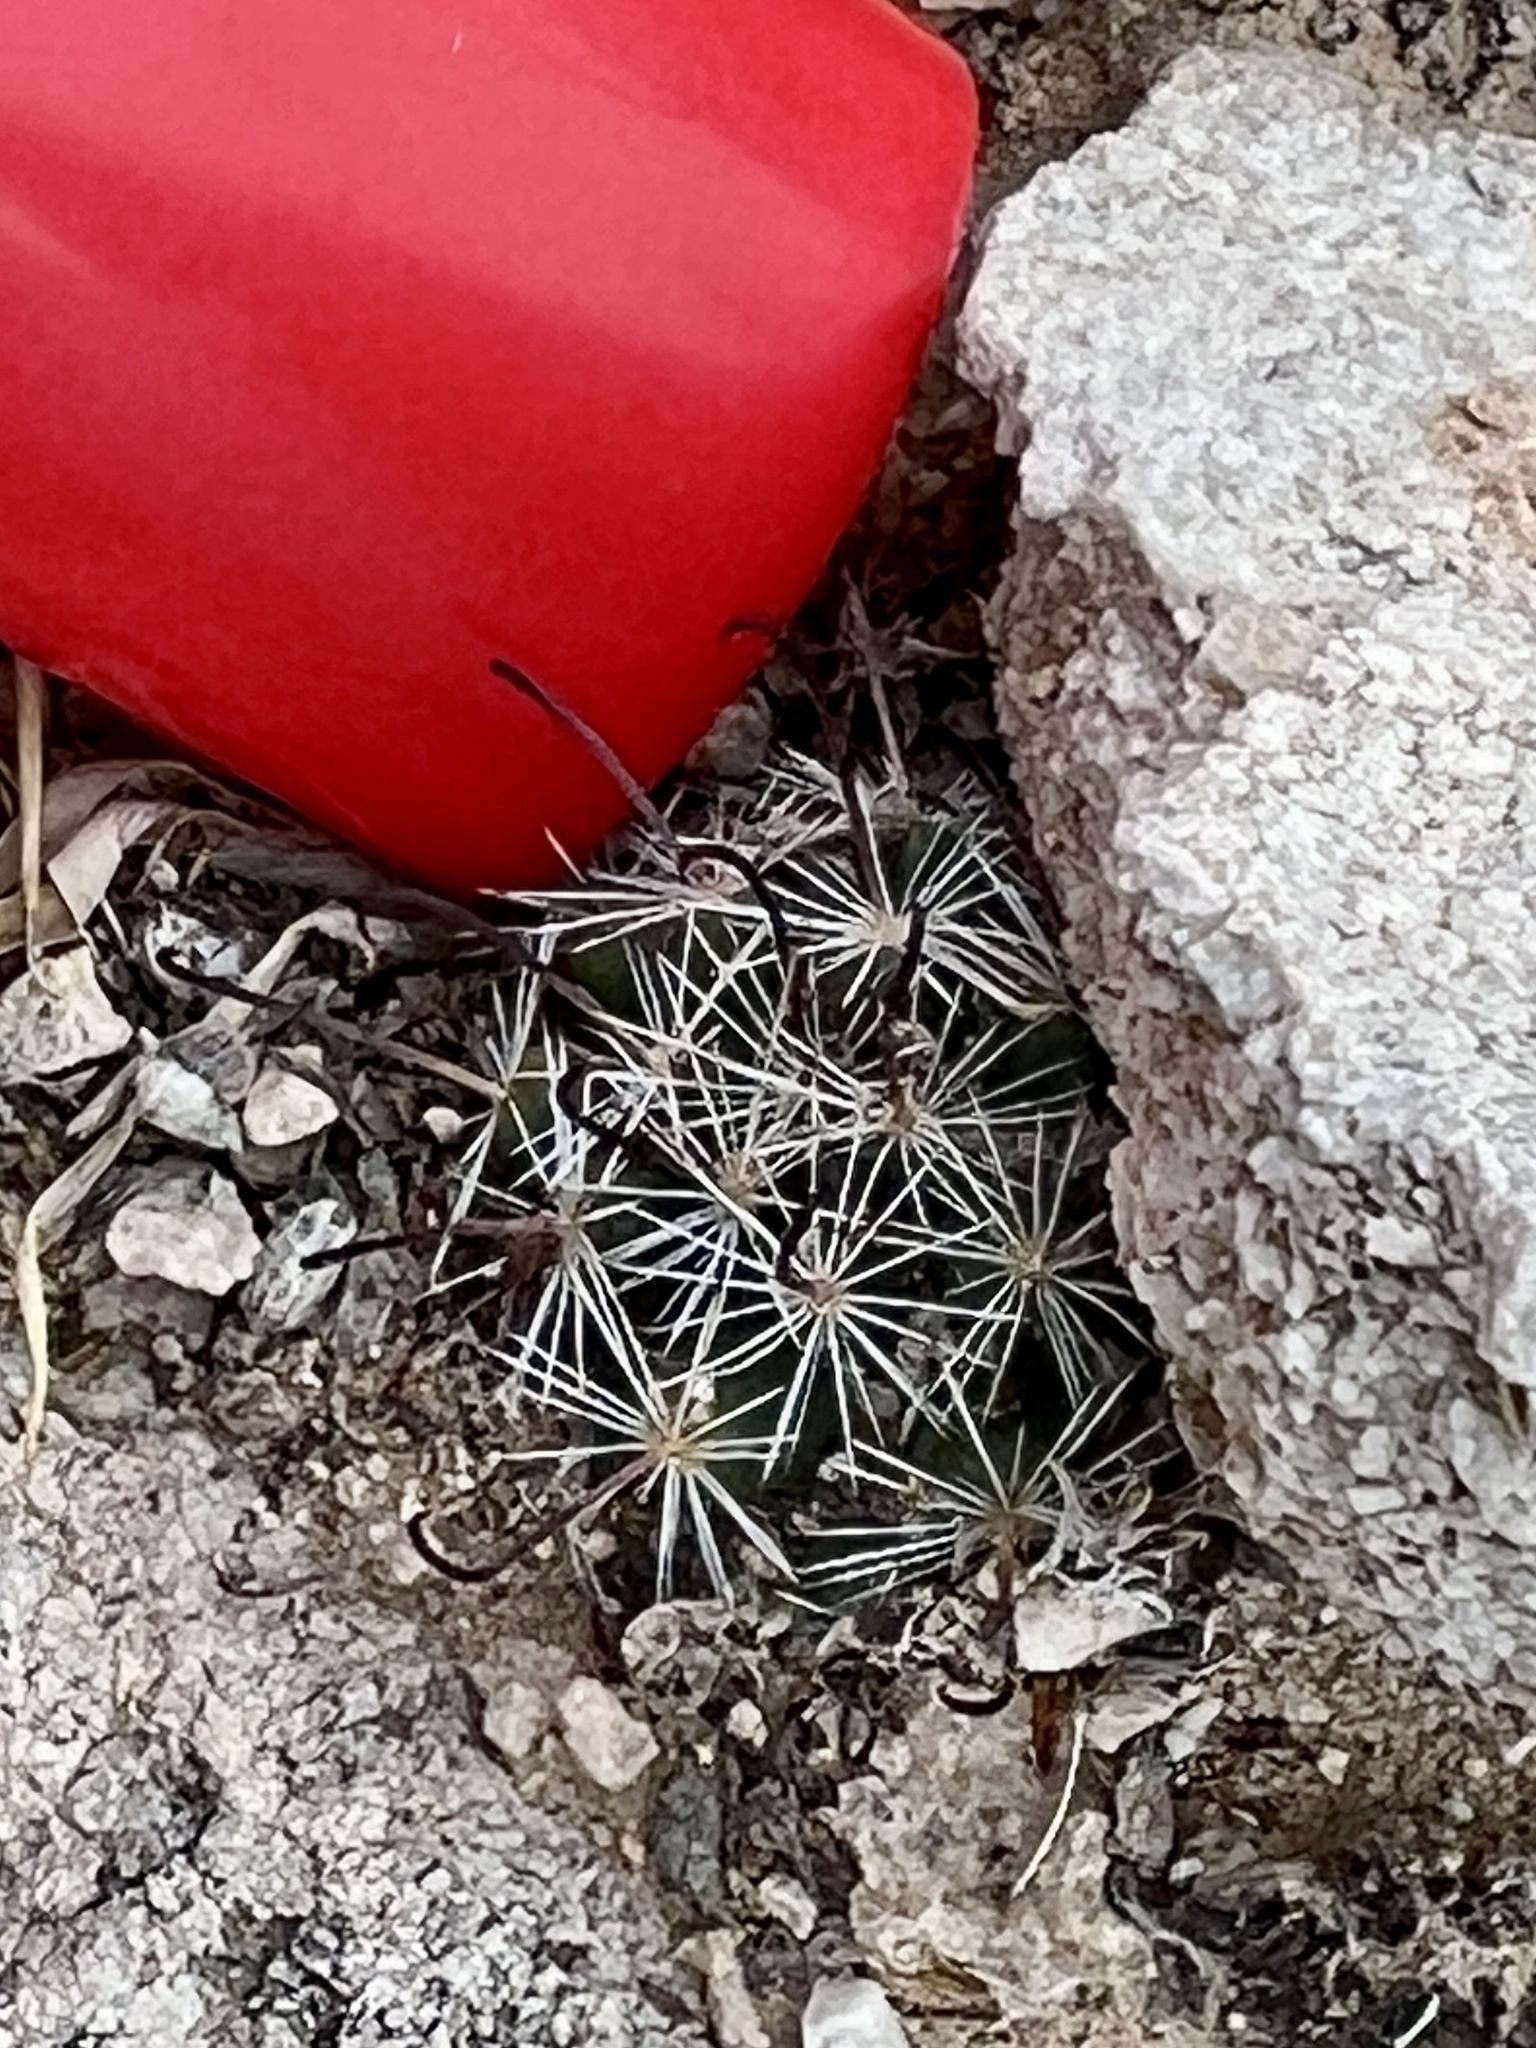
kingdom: Plantae
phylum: Tracheophyta
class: Magnoliopsida
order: Caryophyllales
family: Cactaceae
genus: Cochemiea
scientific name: Cochemiea tetrancistra
